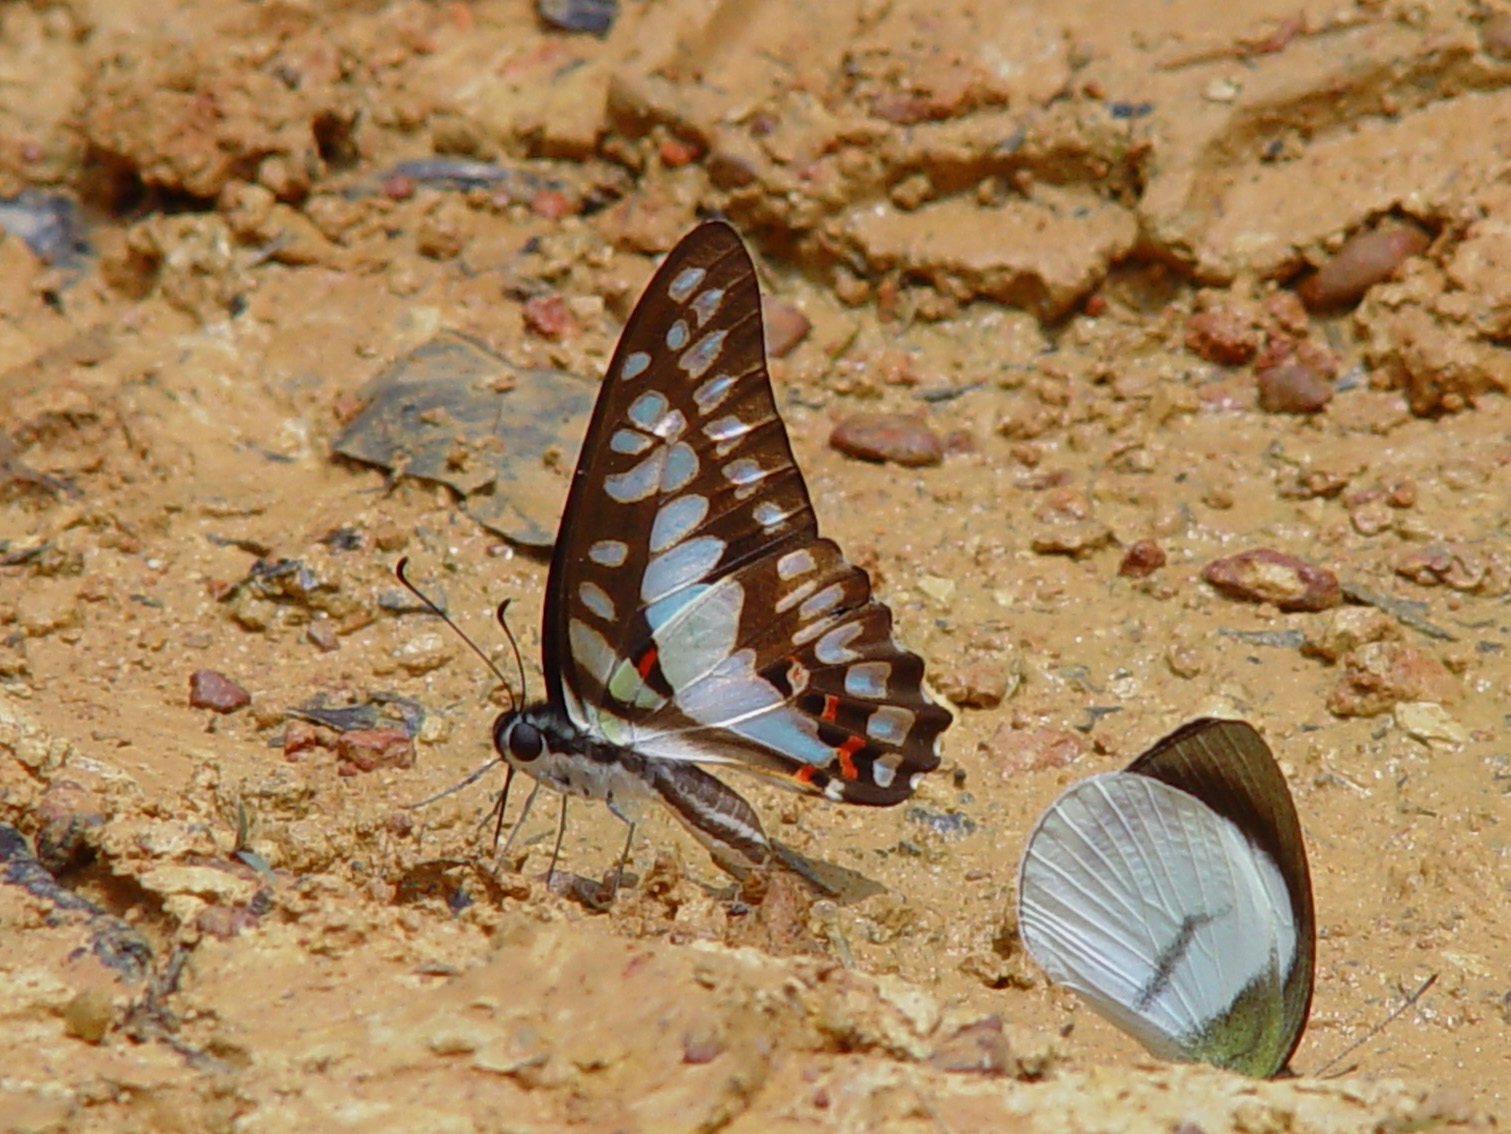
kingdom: Animalia
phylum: Arthropoda
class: Insecta
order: Lepidoptera
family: Papilionidae
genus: Graphium
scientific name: Graphium eurypylus
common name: Great jay
